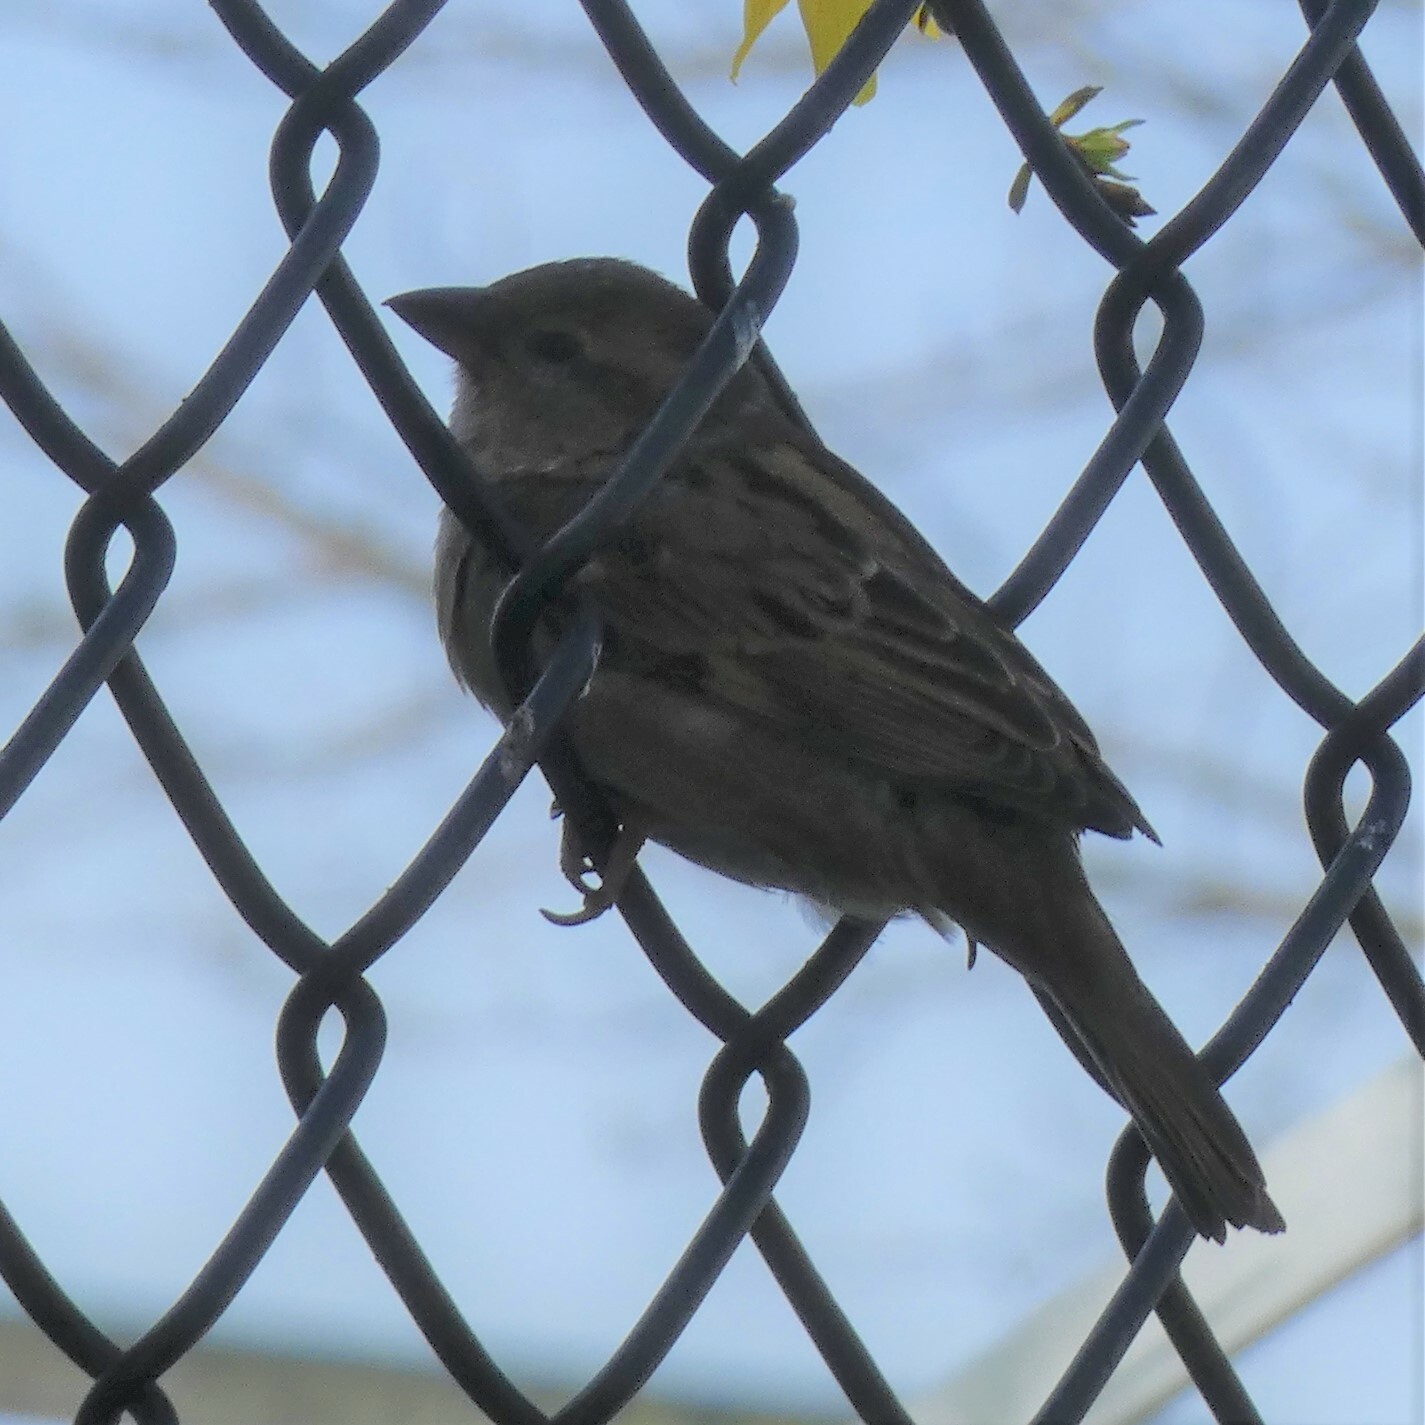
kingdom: Animalia
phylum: Chordata
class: Aves
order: Passeriformes
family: Passeridae
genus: Passer
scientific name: Passer domesticus
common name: House sparrow
